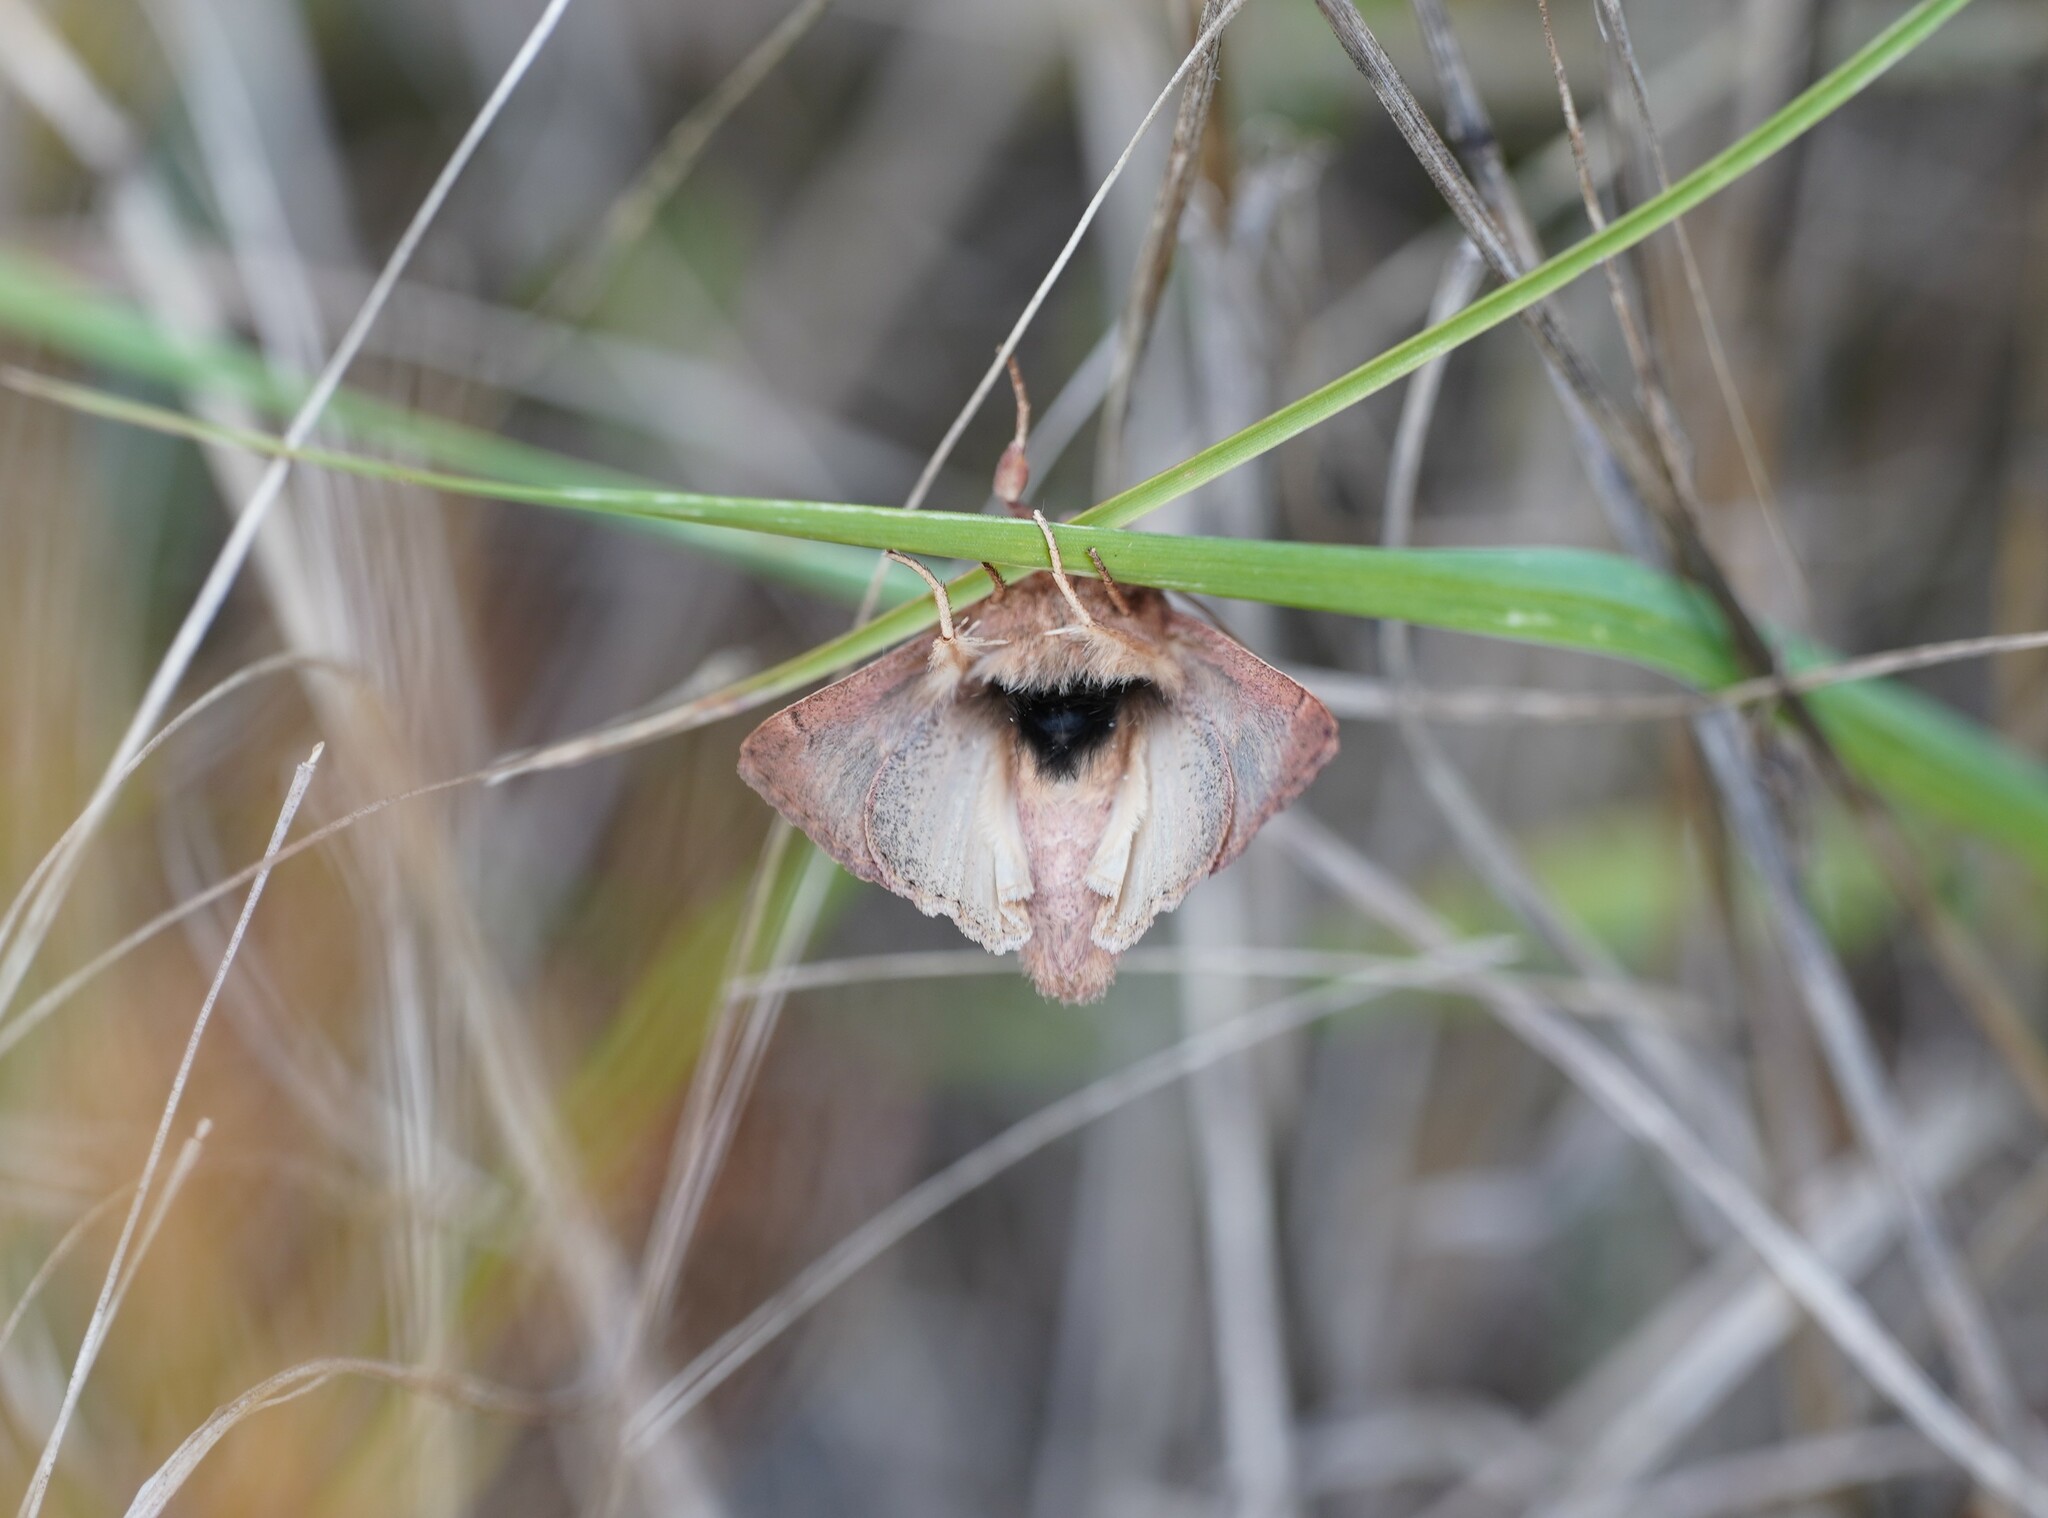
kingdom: Animalia
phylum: Arthropoda
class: Insecta
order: Lepidoptera
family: Noctuidae
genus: Mythimna
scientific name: Mythimna albipuncta
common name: White-point
